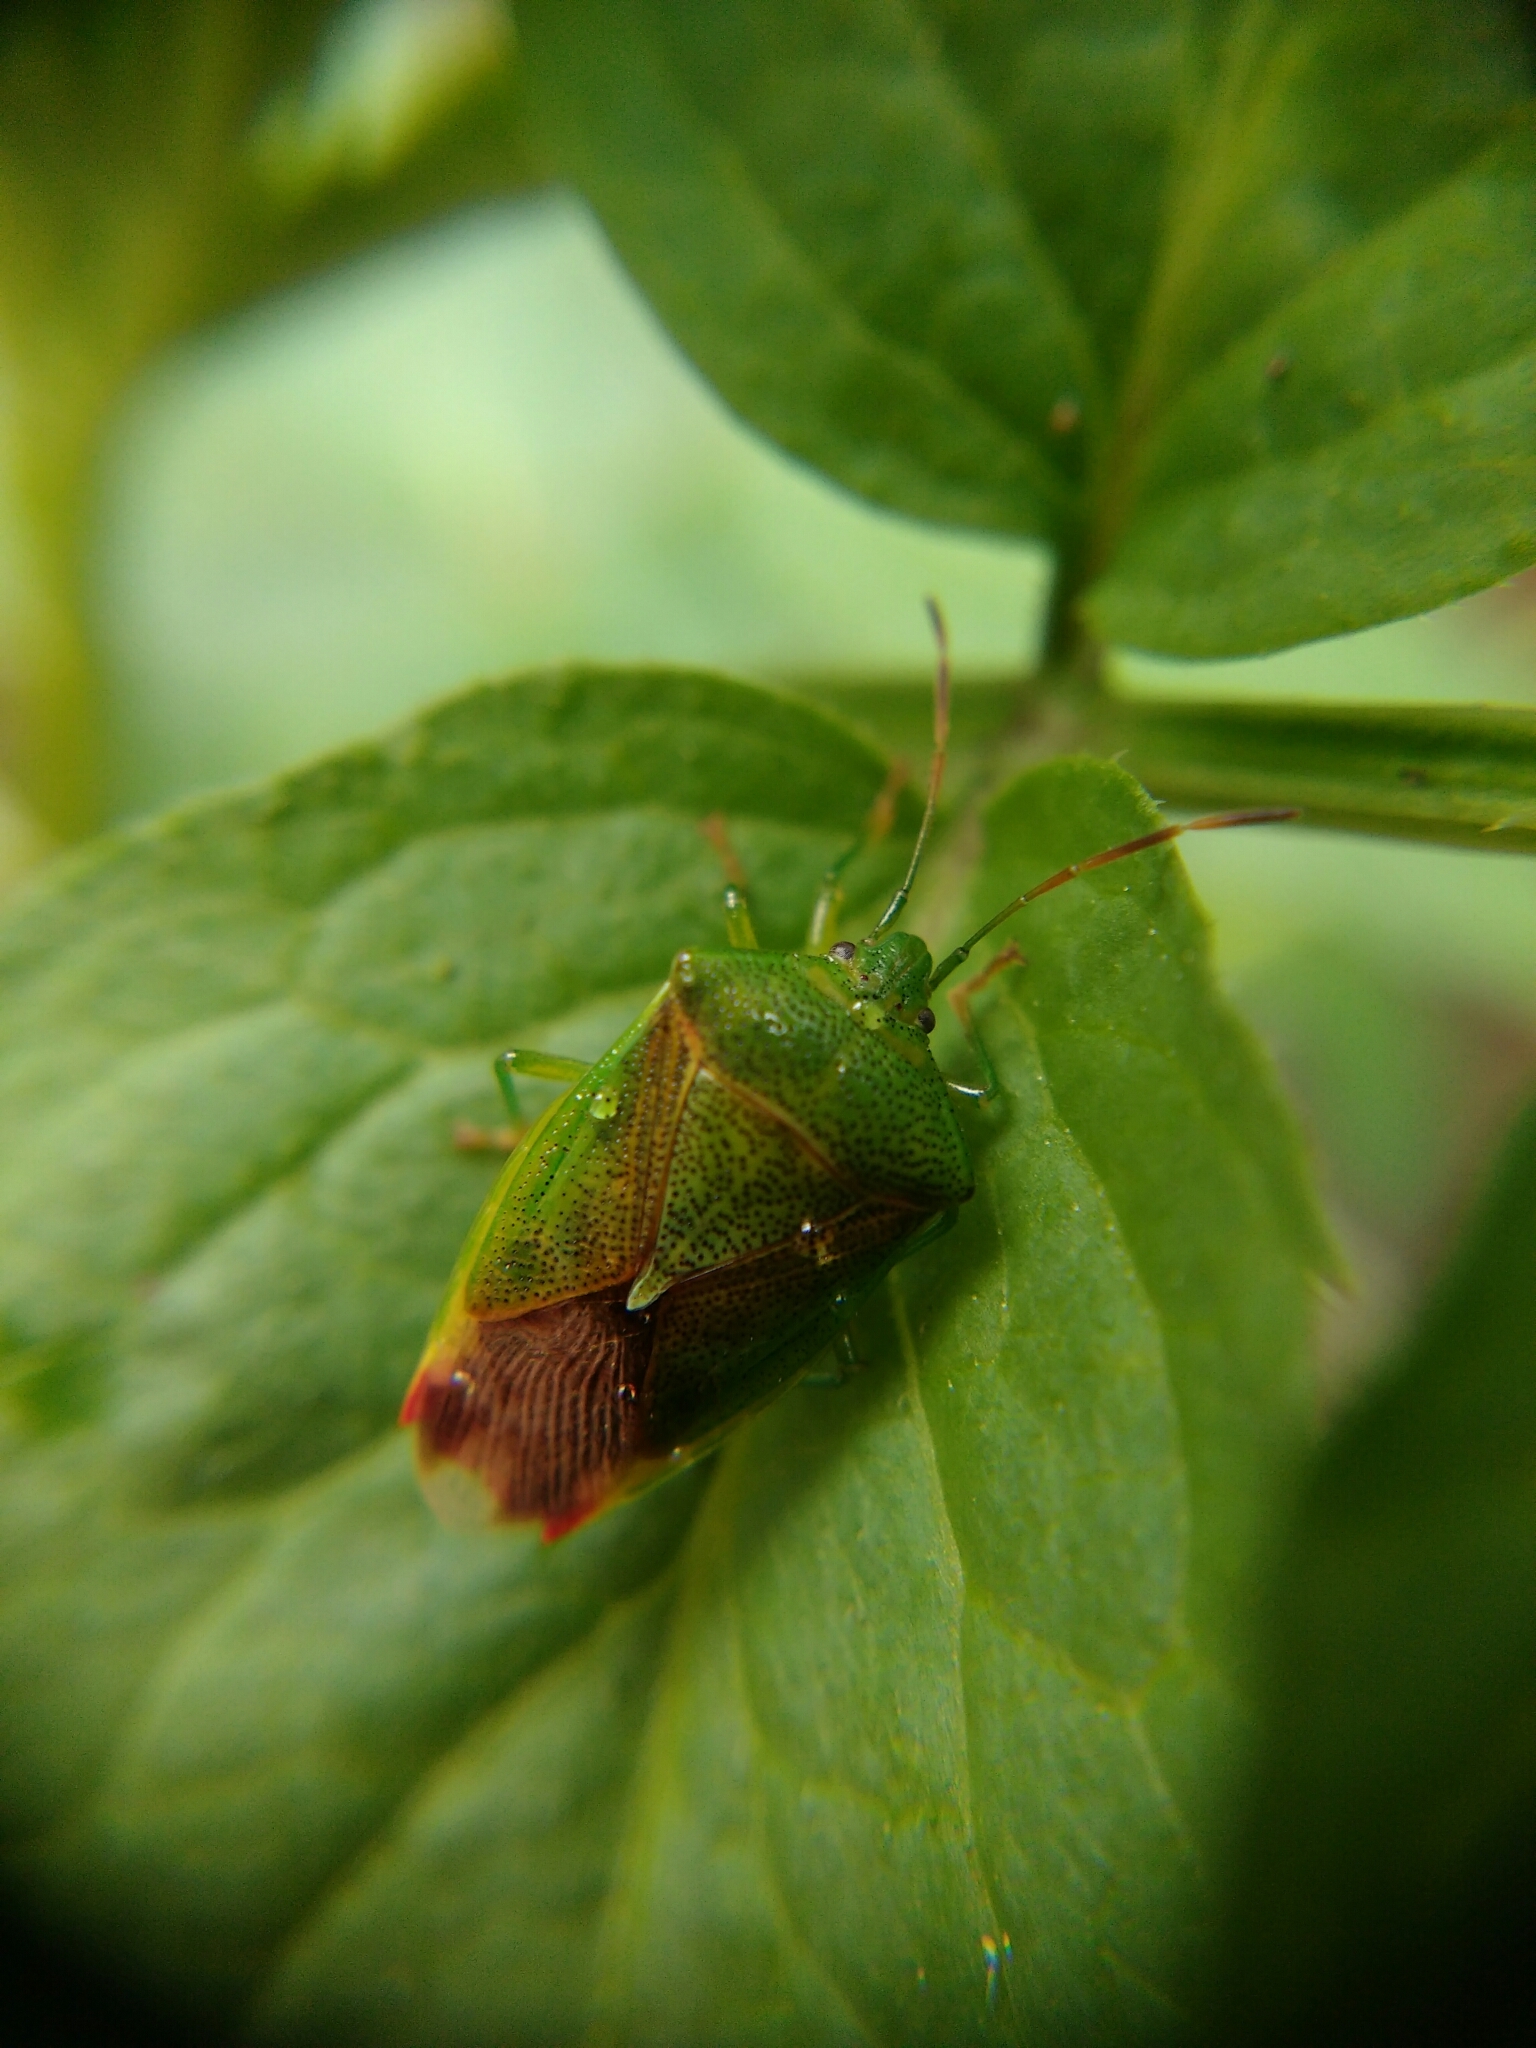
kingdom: Animalia
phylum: Arthropoda
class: Insecta
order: Hemiptera
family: Acanthosomatidae
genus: Elasmostethus
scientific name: Elasmostethus
